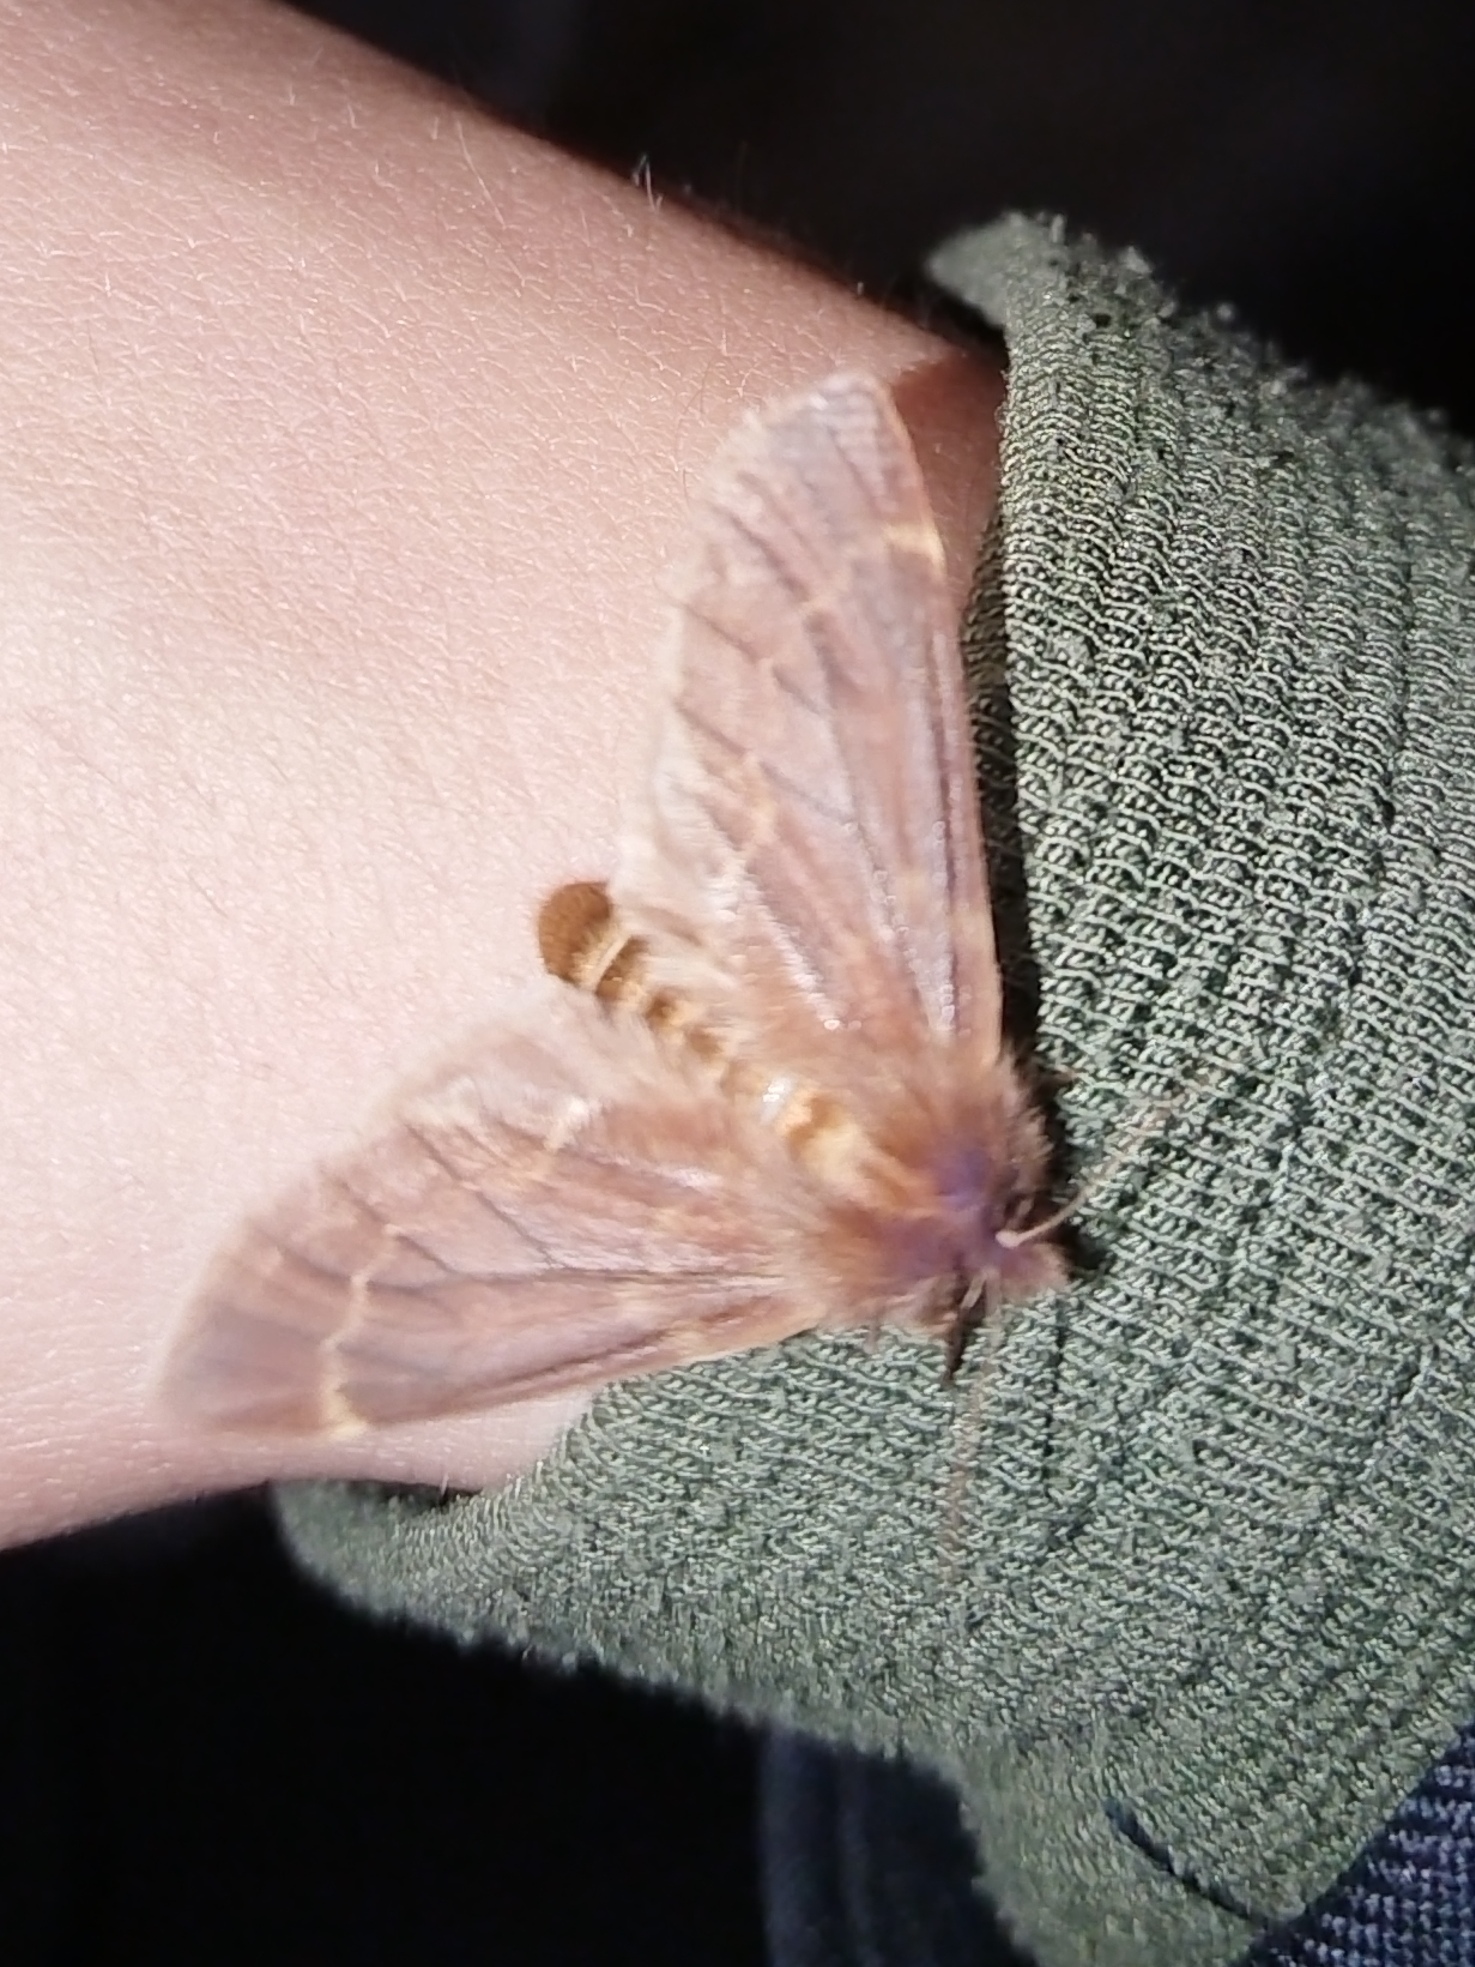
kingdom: Animalia
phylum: Arthropoda
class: Insecta
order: Lepidoptera
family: Notodontidae
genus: Ptilophora
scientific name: Ptilophora plumigera
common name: Plumed prominent
